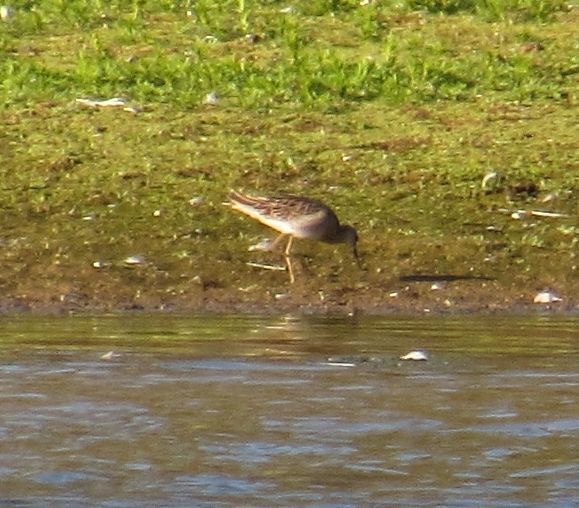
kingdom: Animalia
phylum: Chordata
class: Aves
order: Charadriiformes
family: Scolopacidae
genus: Calidris
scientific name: Calidris pugnax
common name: Ruff
